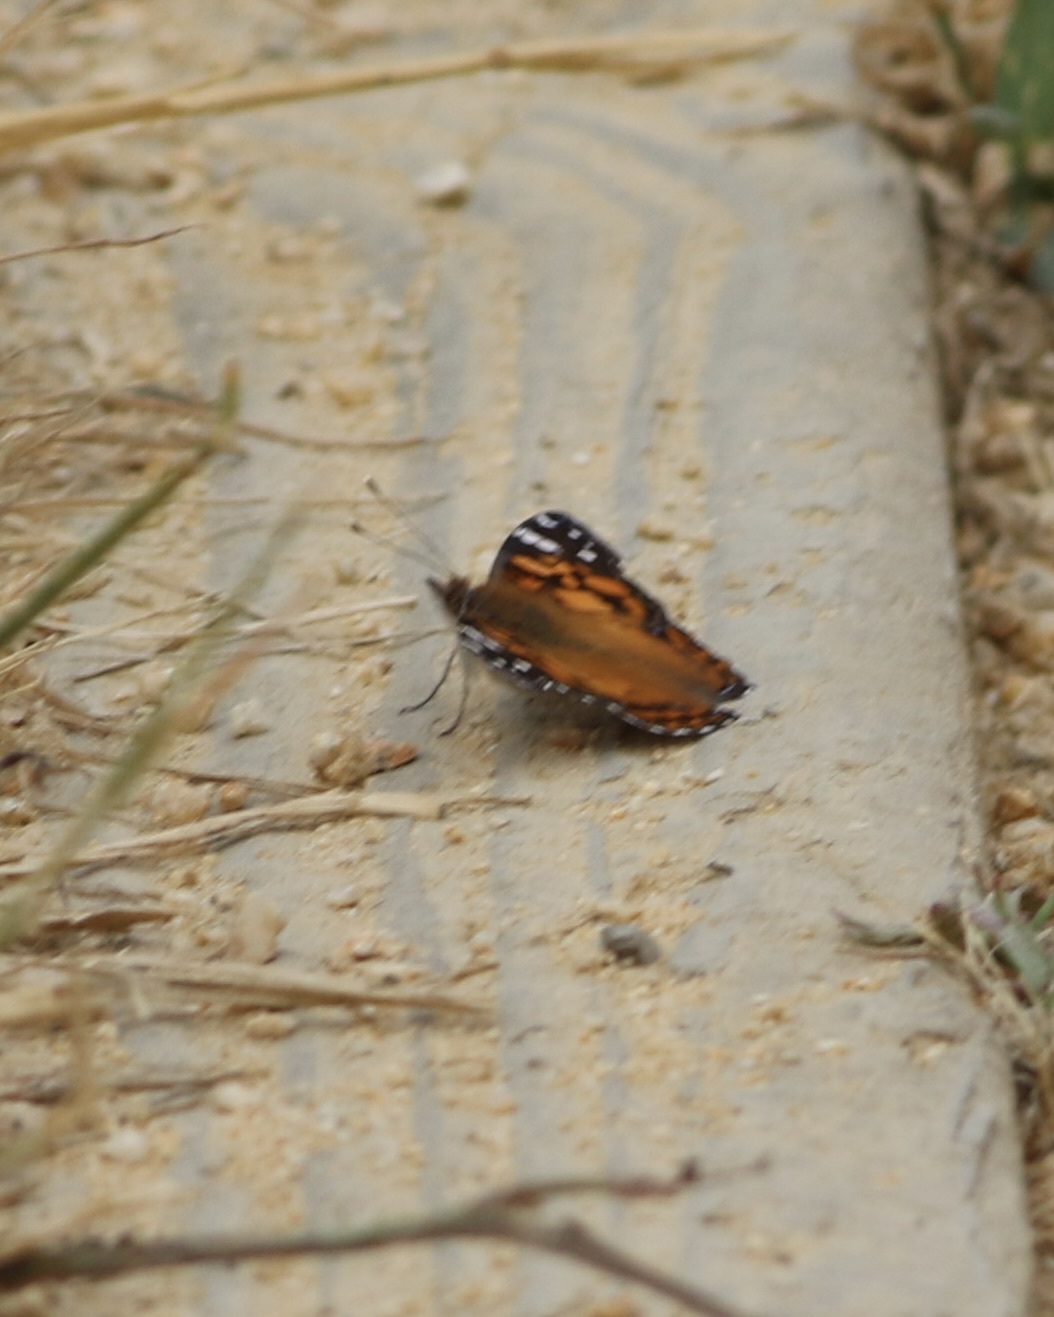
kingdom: Animalia
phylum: Arthropoda
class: Insecta
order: Lepidoptera
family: Nymphalidae
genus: Vanessa
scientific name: Vanessa virginiensis
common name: American lady
